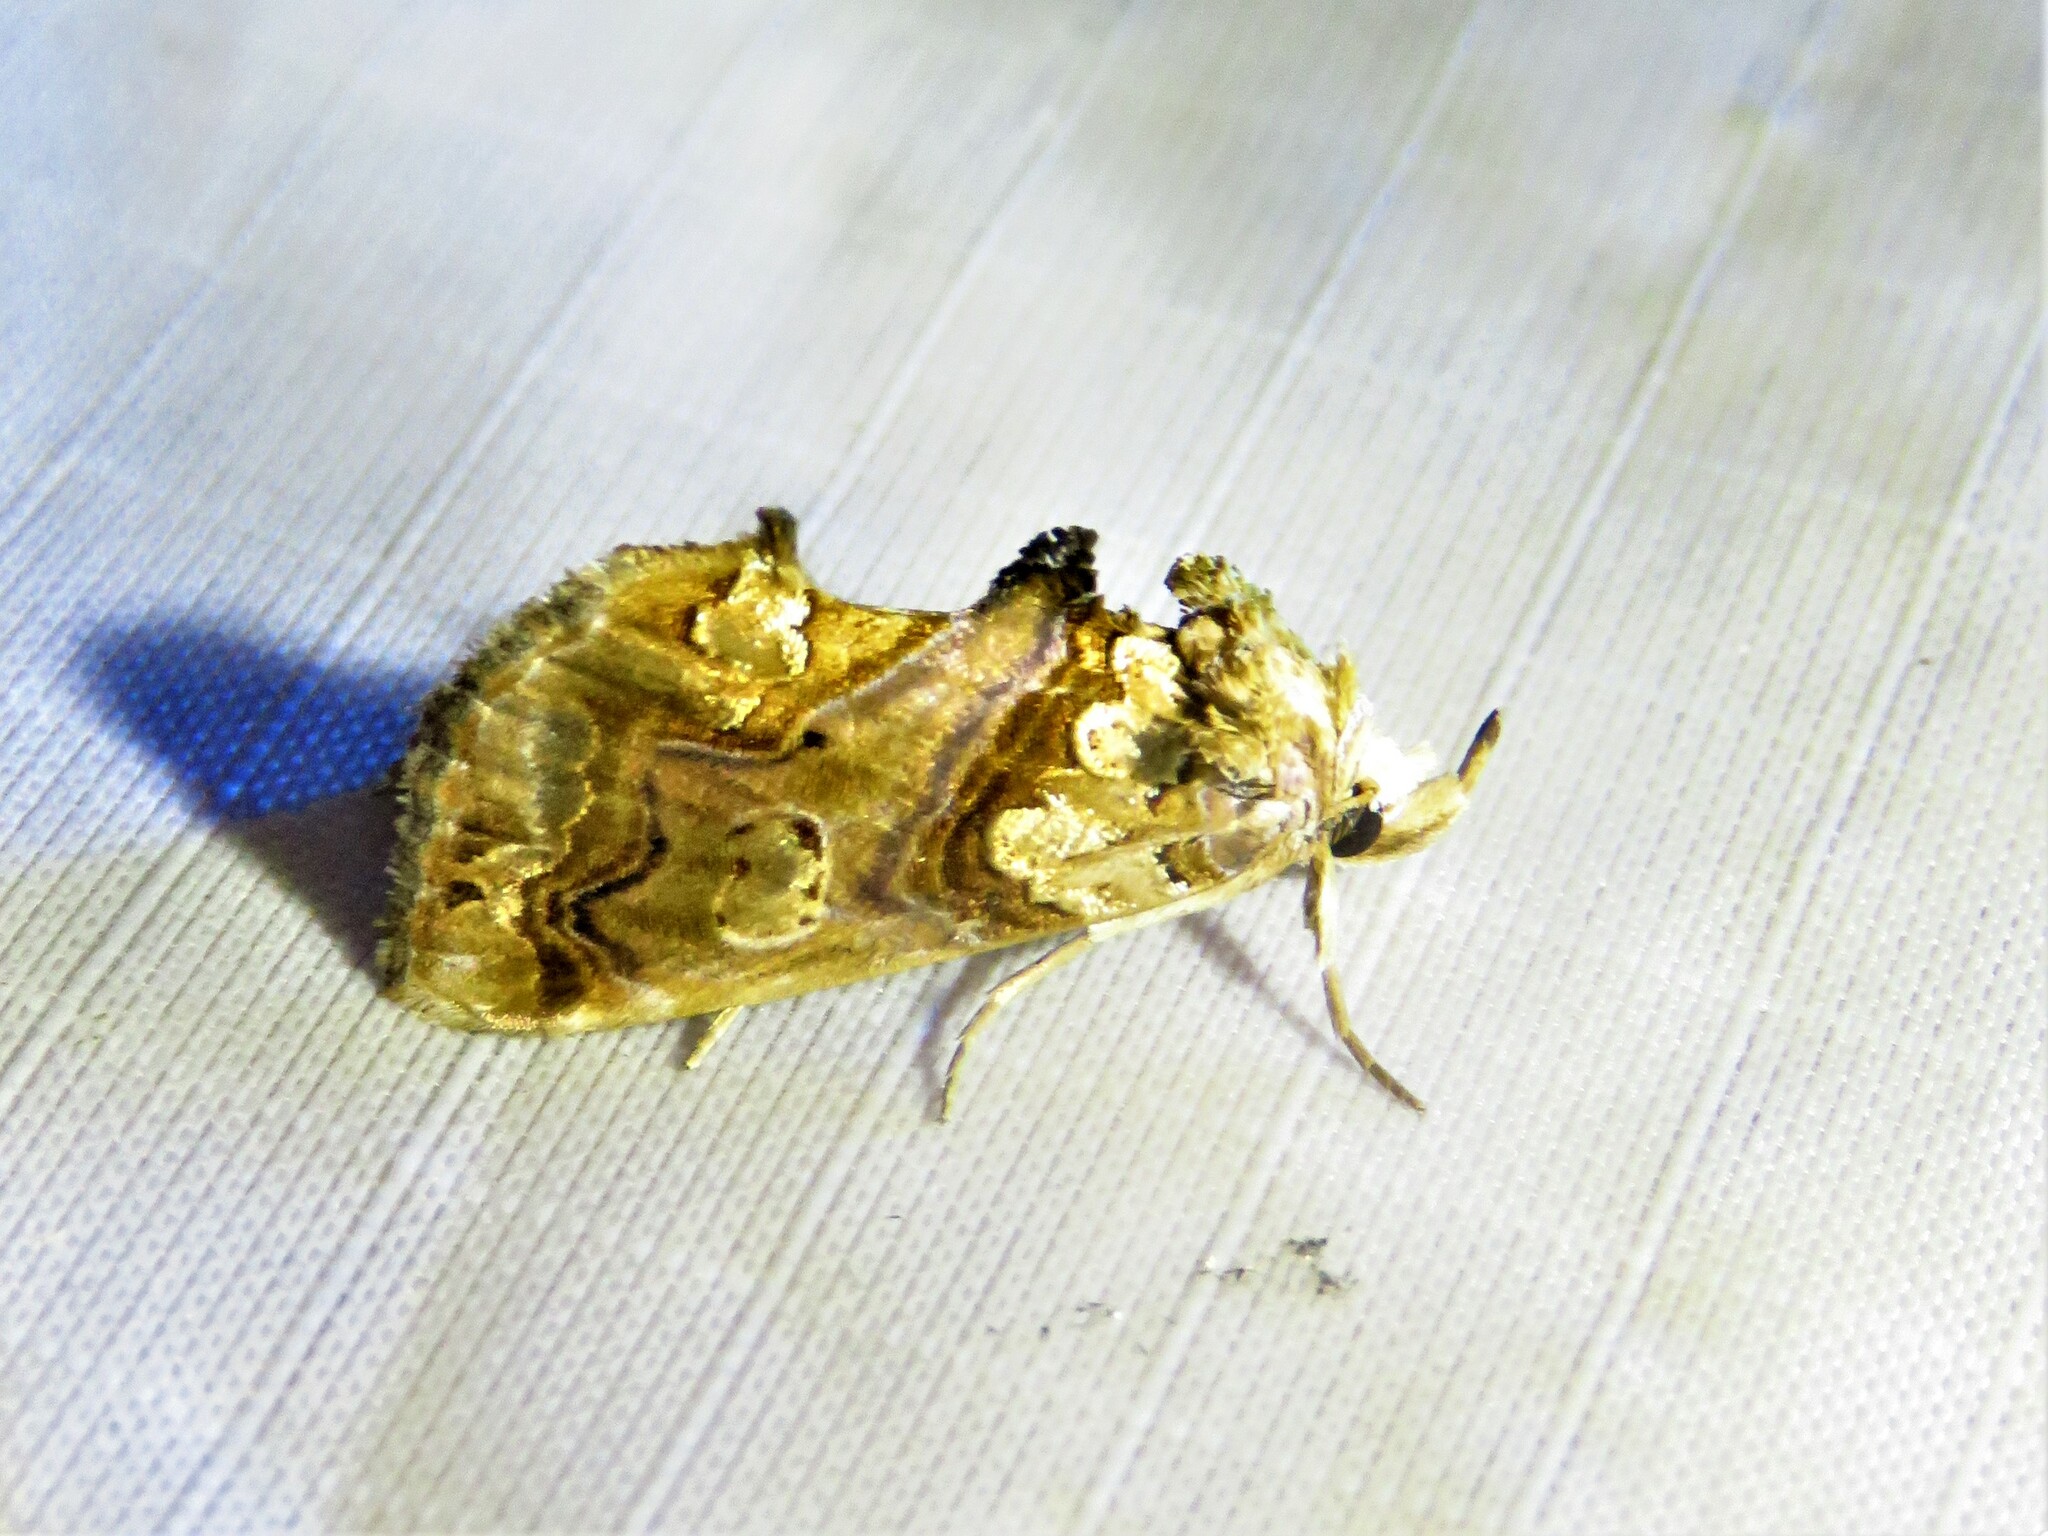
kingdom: Animalia
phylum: Arthropoda
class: Insecta
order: Lepidoptera
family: Erebidae
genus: Plusiodonta
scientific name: Plusiodonta compressipalpis
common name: Moonseed moth
